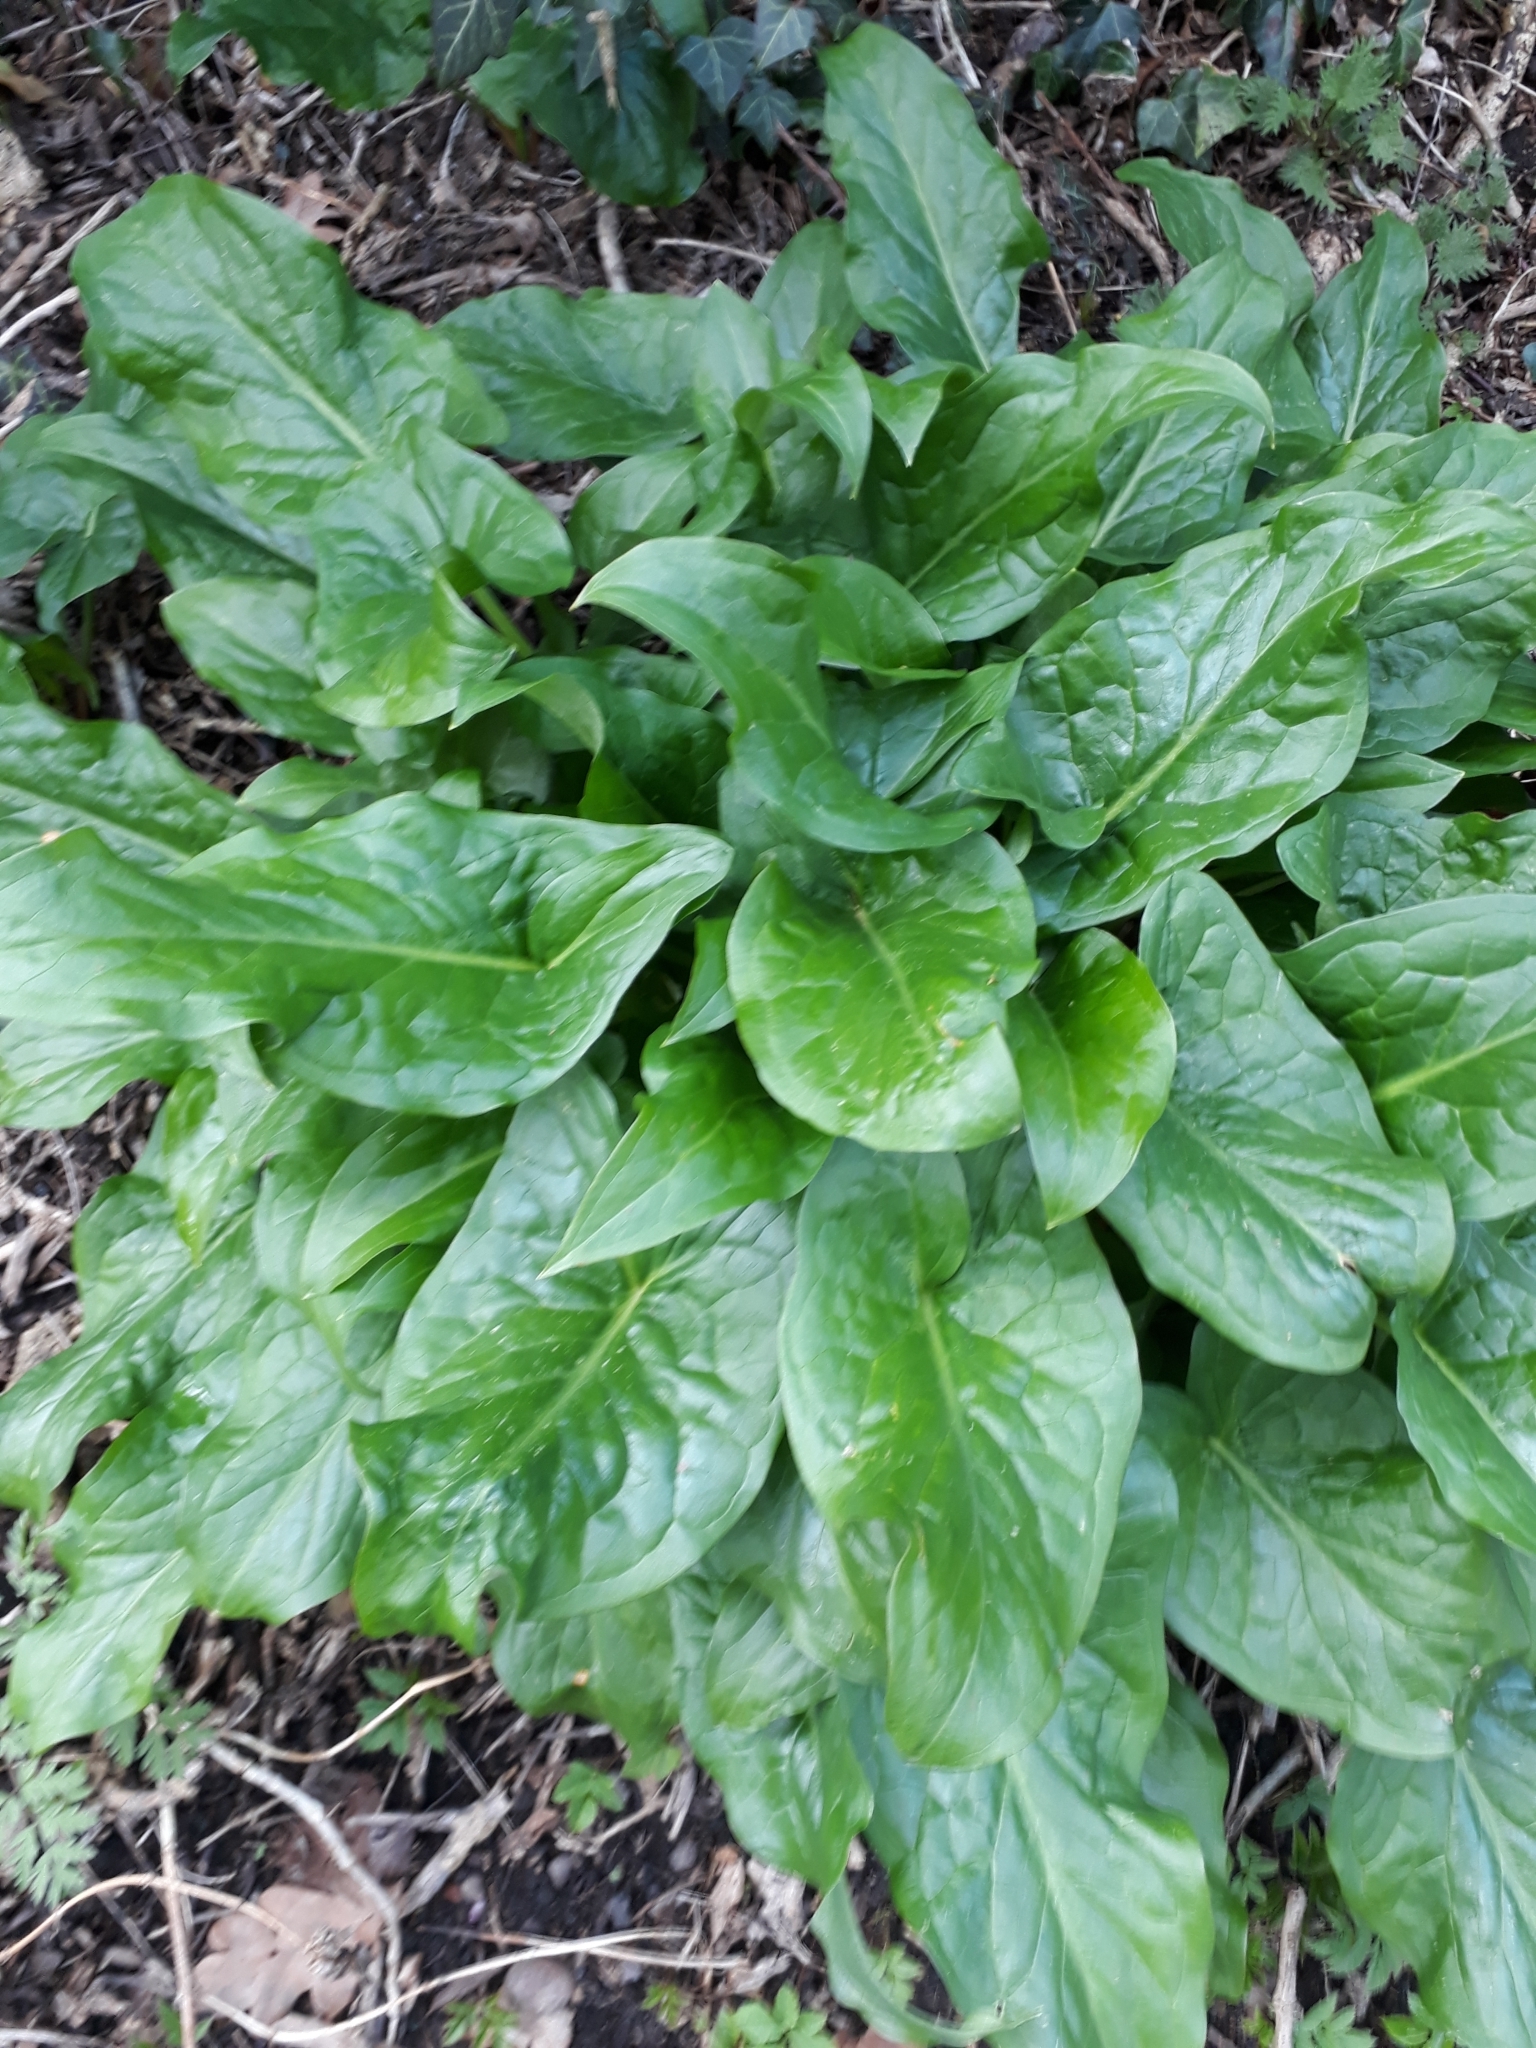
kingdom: Plantae
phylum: Tracheophyta
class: Liliopsida
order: Alismatales
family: Araceae
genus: Arum
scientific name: Arum maculatum
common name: Lords-and-ladies
